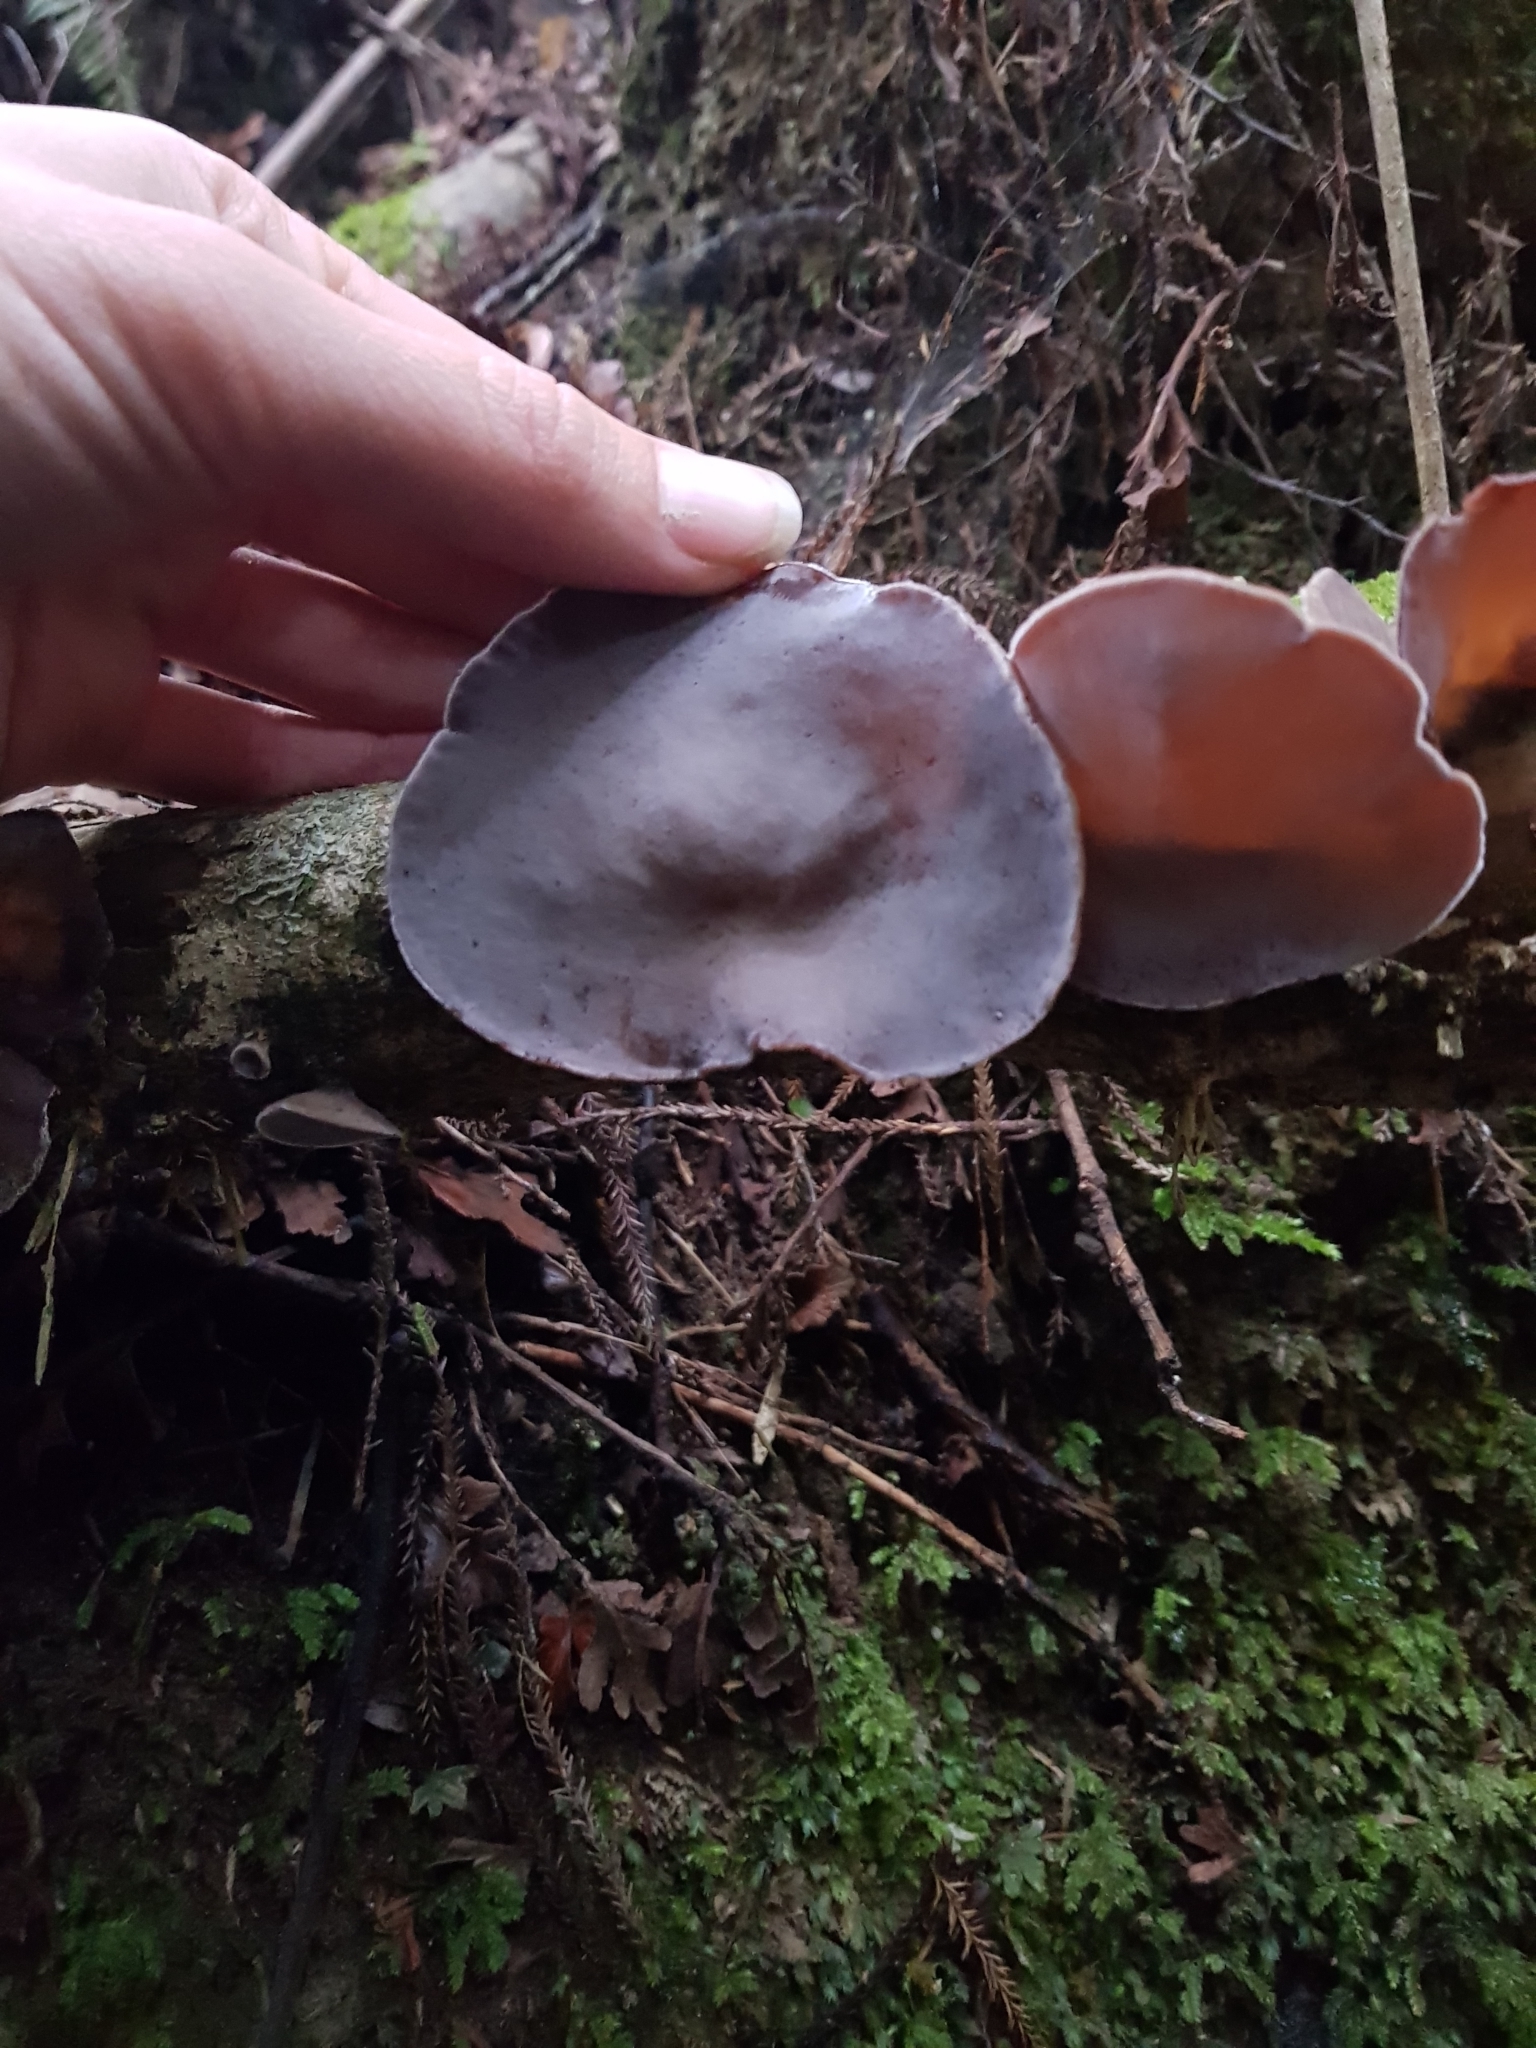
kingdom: Fungi
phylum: Basidiomycota
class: Agaricomycetes
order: Auriculariales
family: Auriculariaceae
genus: Auricularia
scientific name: Auricularia cornea
